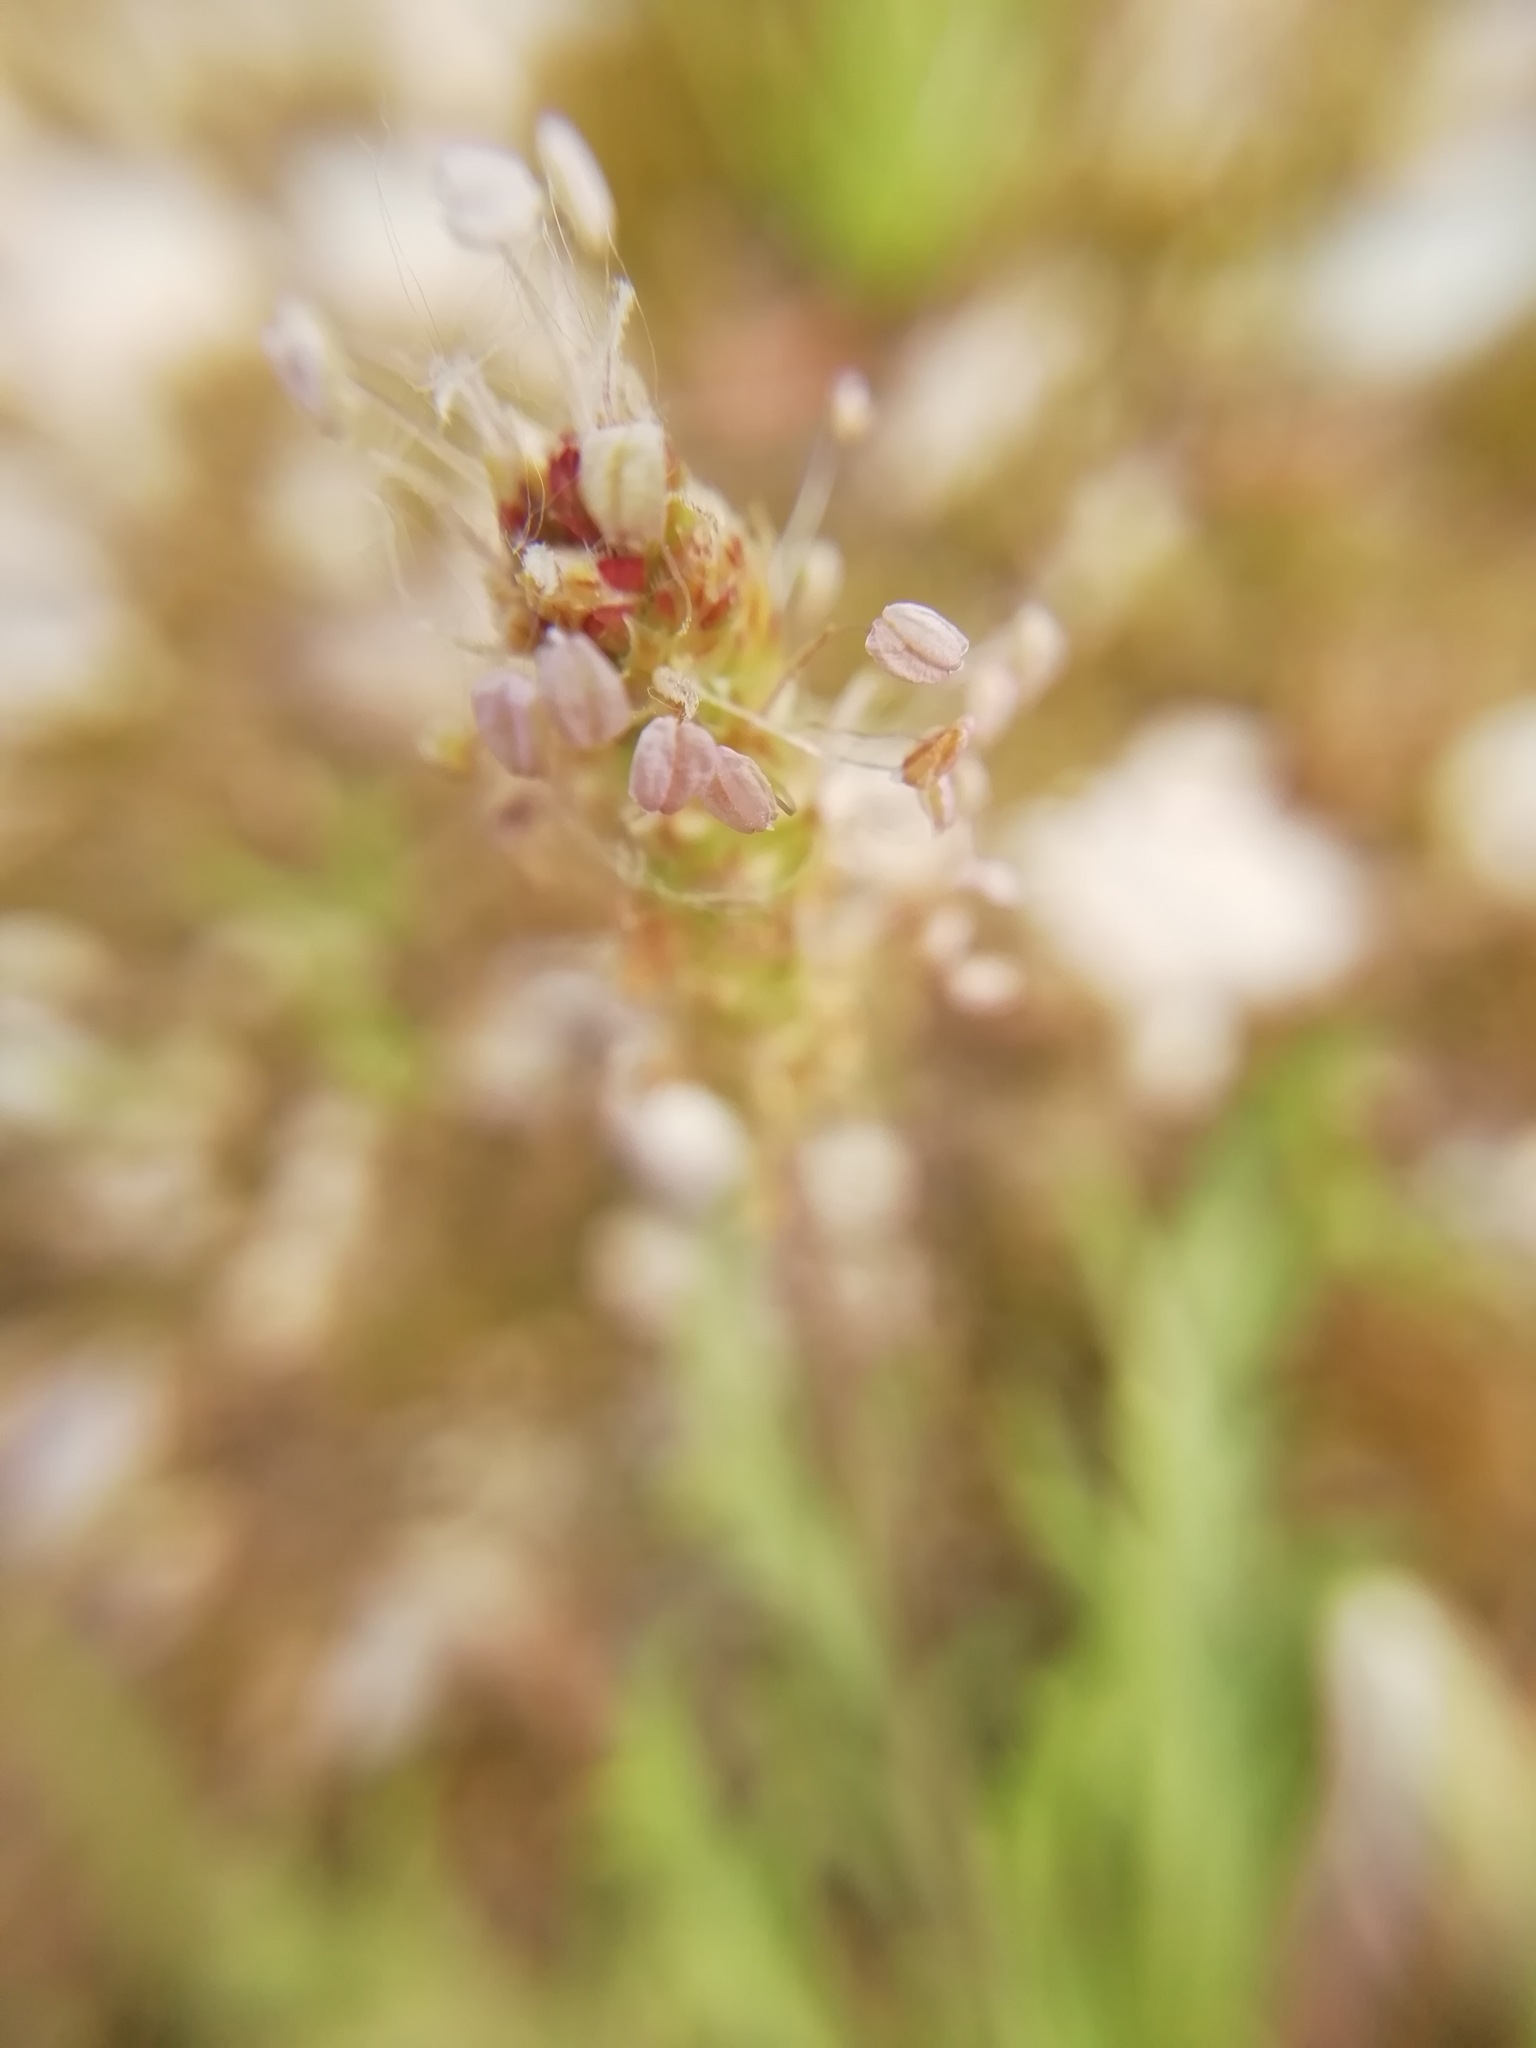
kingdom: Plantae
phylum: Tracheophyta
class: Magnoliopsida
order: Lamiales
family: Plantaginaceae
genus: Plantago
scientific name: Plantago coronopus
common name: Buck's-horn plantain
